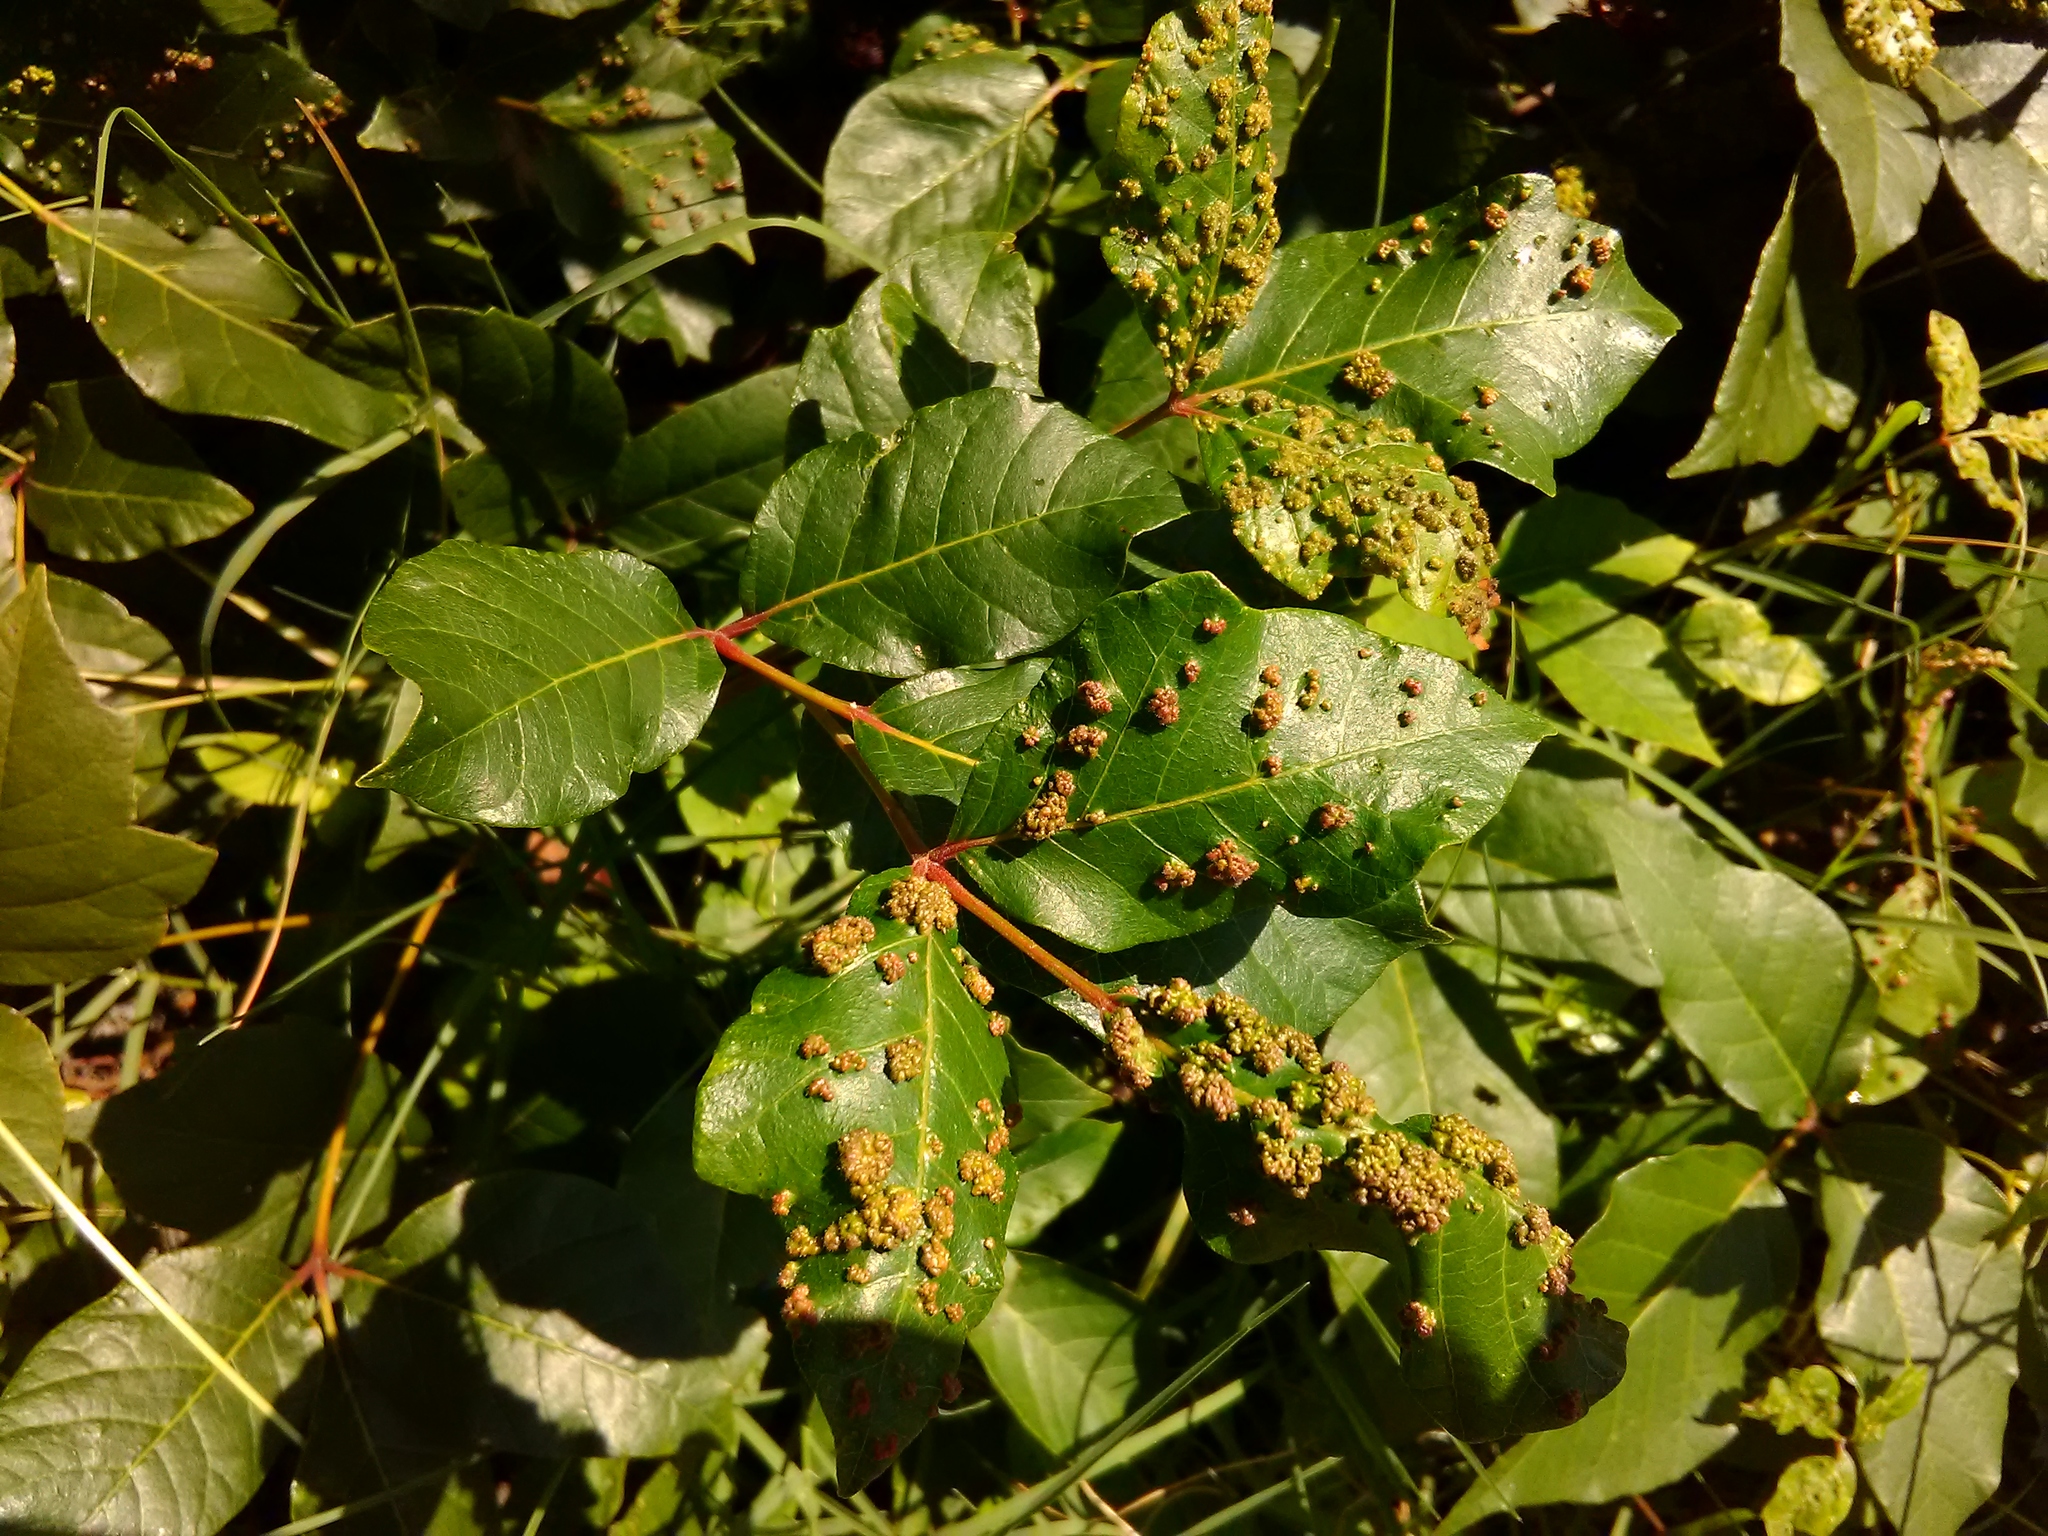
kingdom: Animalia
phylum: Arthropoda
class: Arachnida
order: Trombidiformes
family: Eriophyidae
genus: Aculops
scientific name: Aculops
